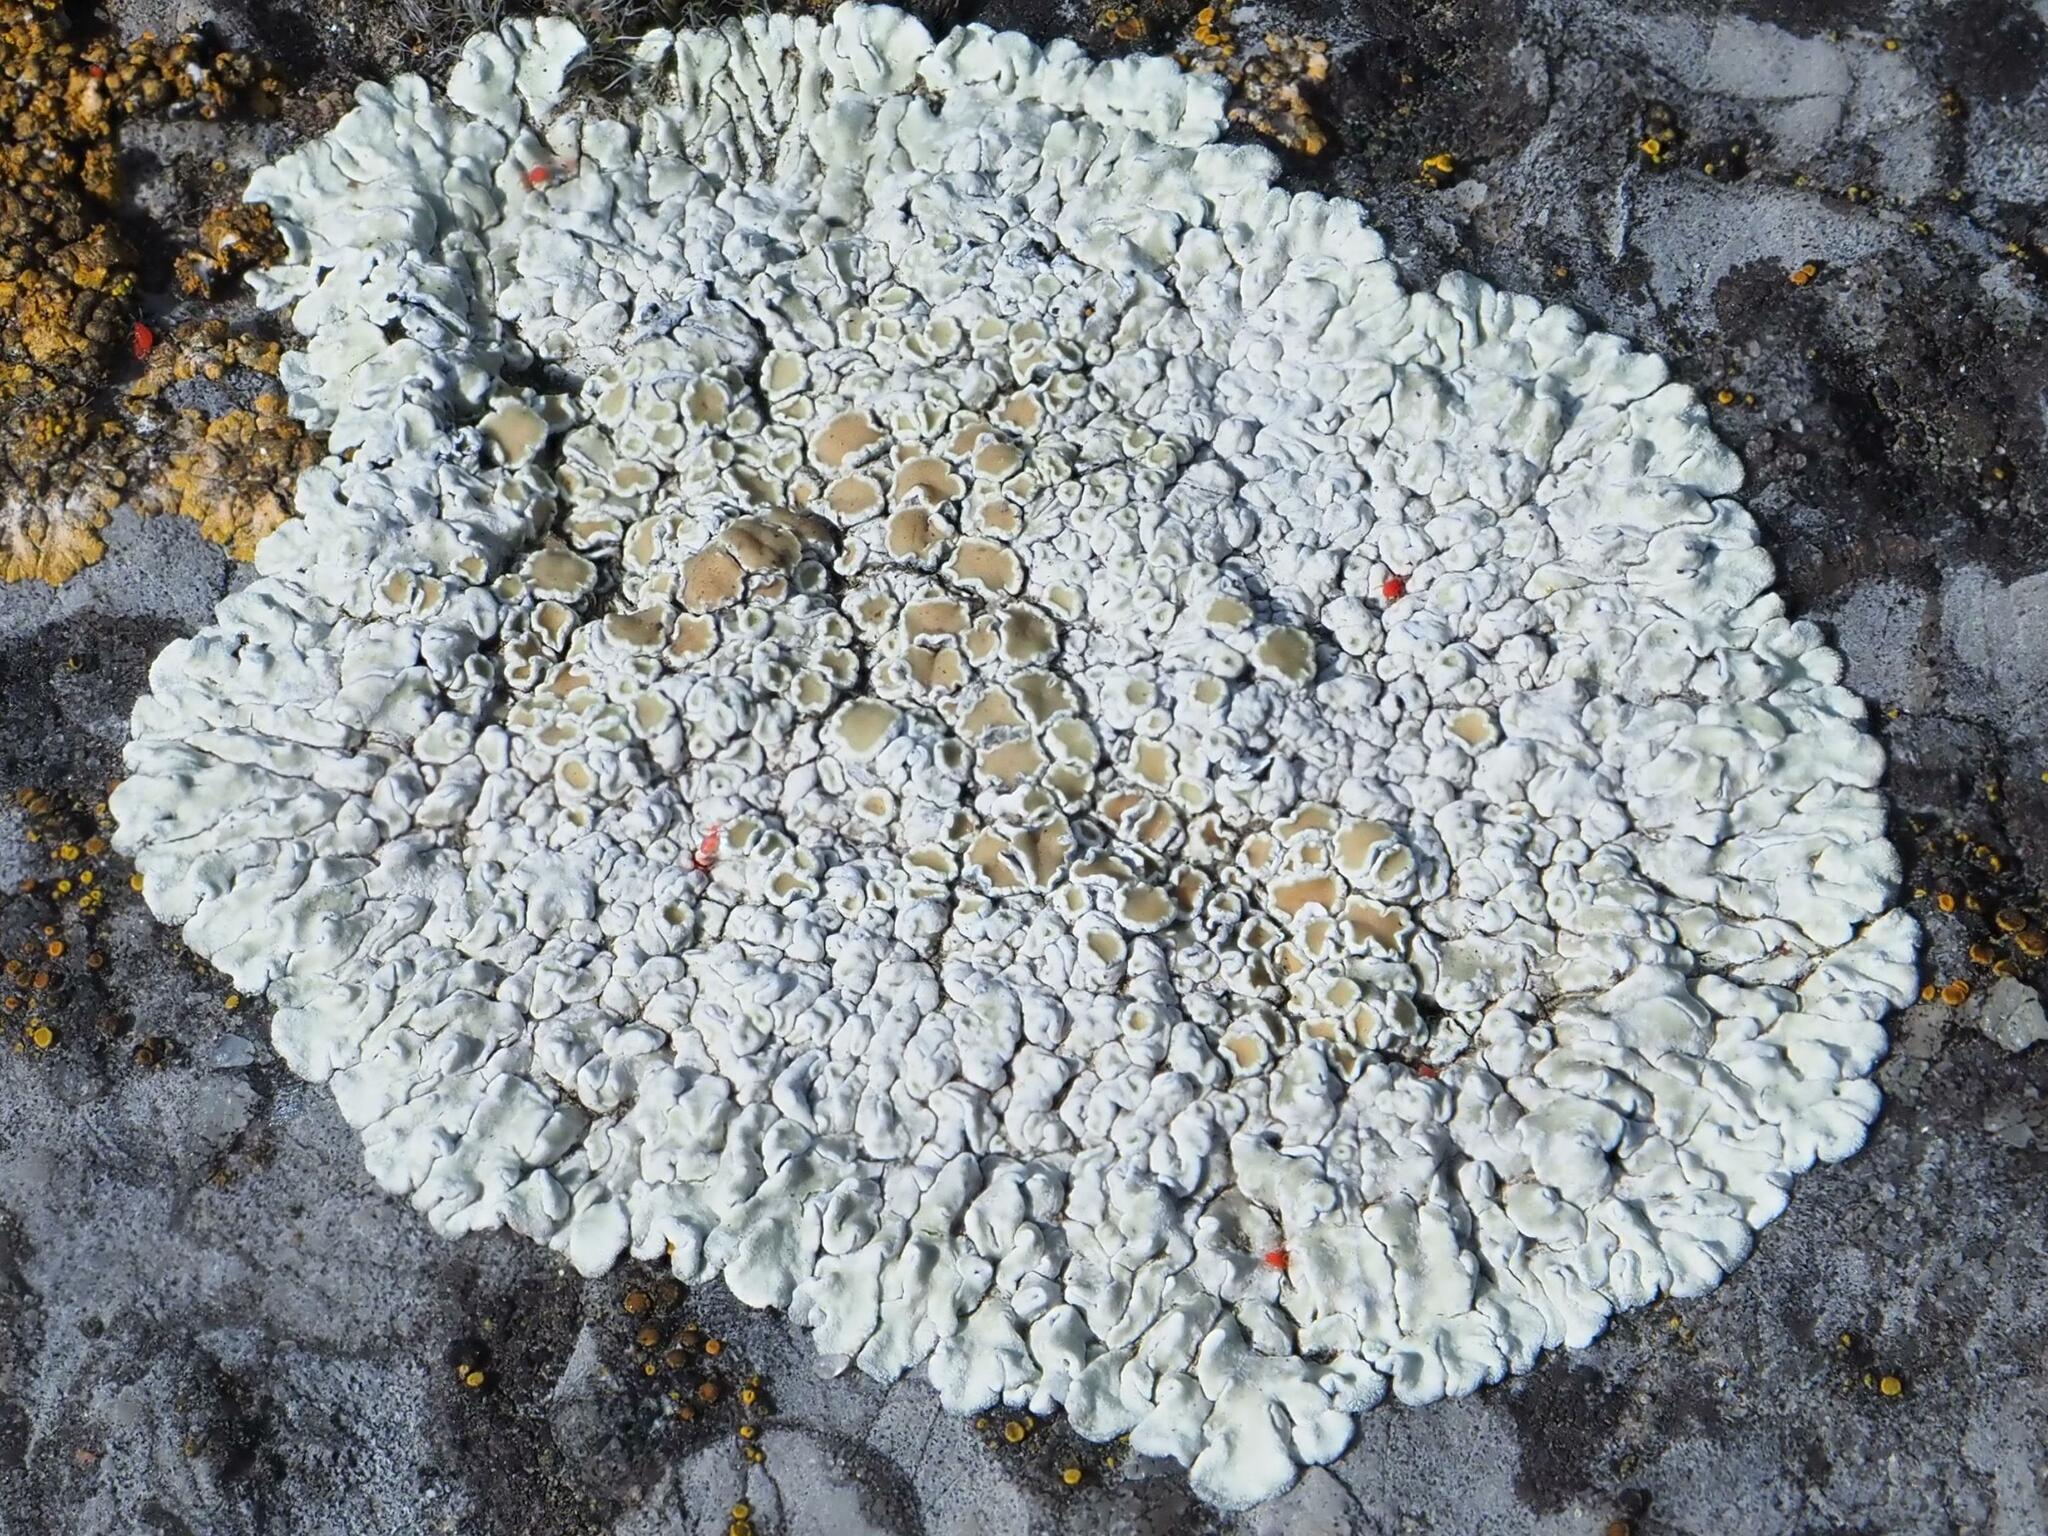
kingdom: Fungi
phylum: Ascomycota
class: Lecanoromycetes
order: Lecanorales
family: Lecanoraceae
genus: Protoparmeliopsis
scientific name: Protoparmeliopsis muralis
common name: Stonewall rim lichen
